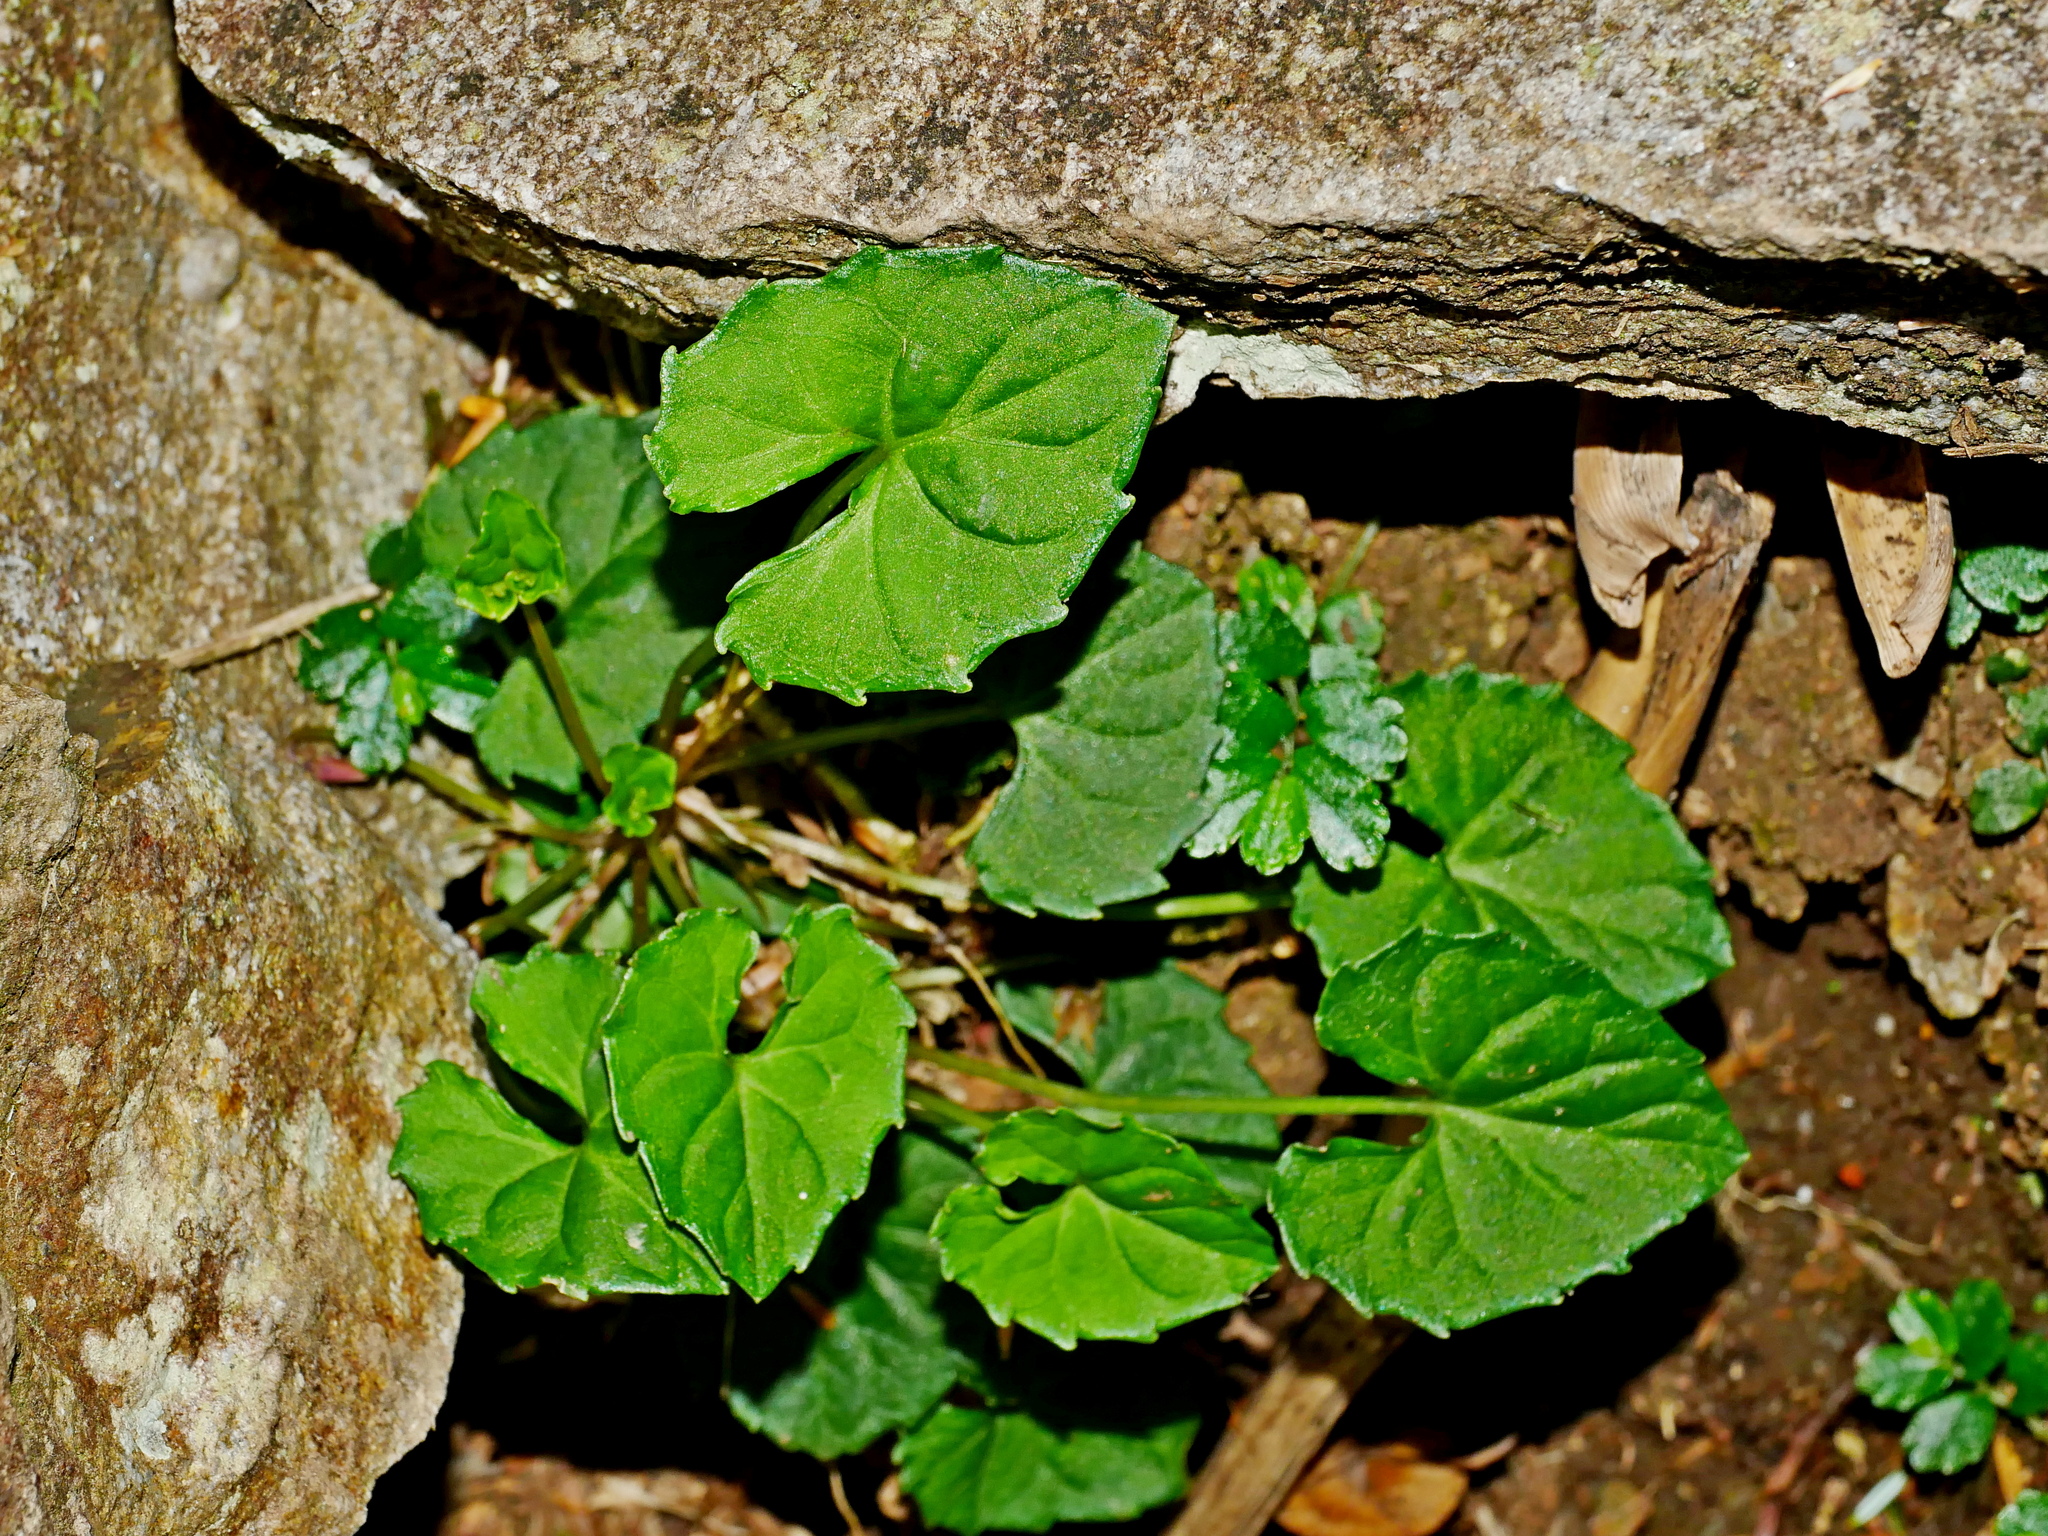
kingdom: Plantae
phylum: Tracheophyta
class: Magnoliopsida
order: Malpighiales
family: Violaceae
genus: Viola
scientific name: Viola senzanensis
